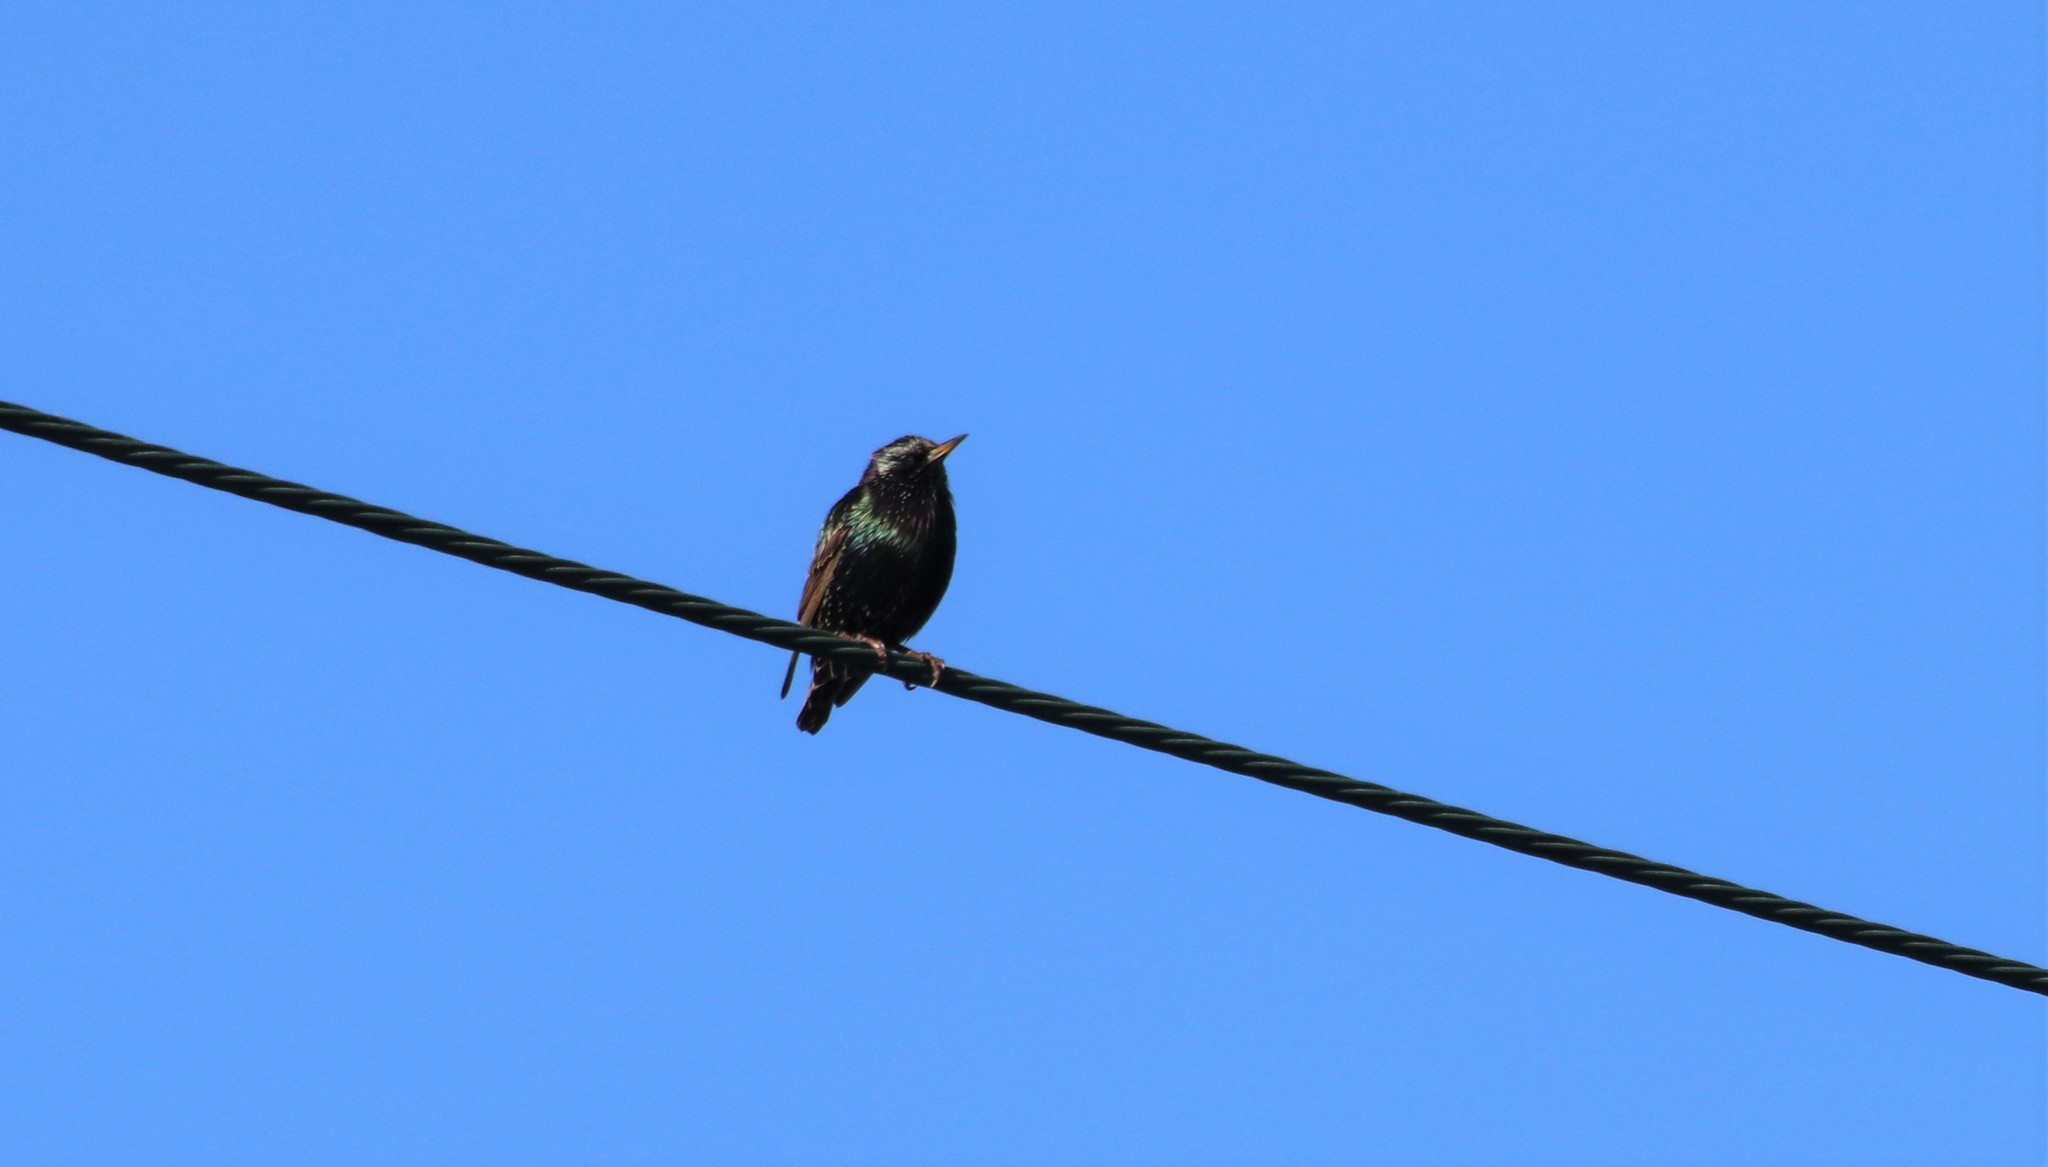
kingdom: Animalia
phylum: Chordata
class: Aves
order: Passeriformes
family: Sturnidae
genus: Sturnus
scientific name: Sturnus vulgaris
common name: Common starling
